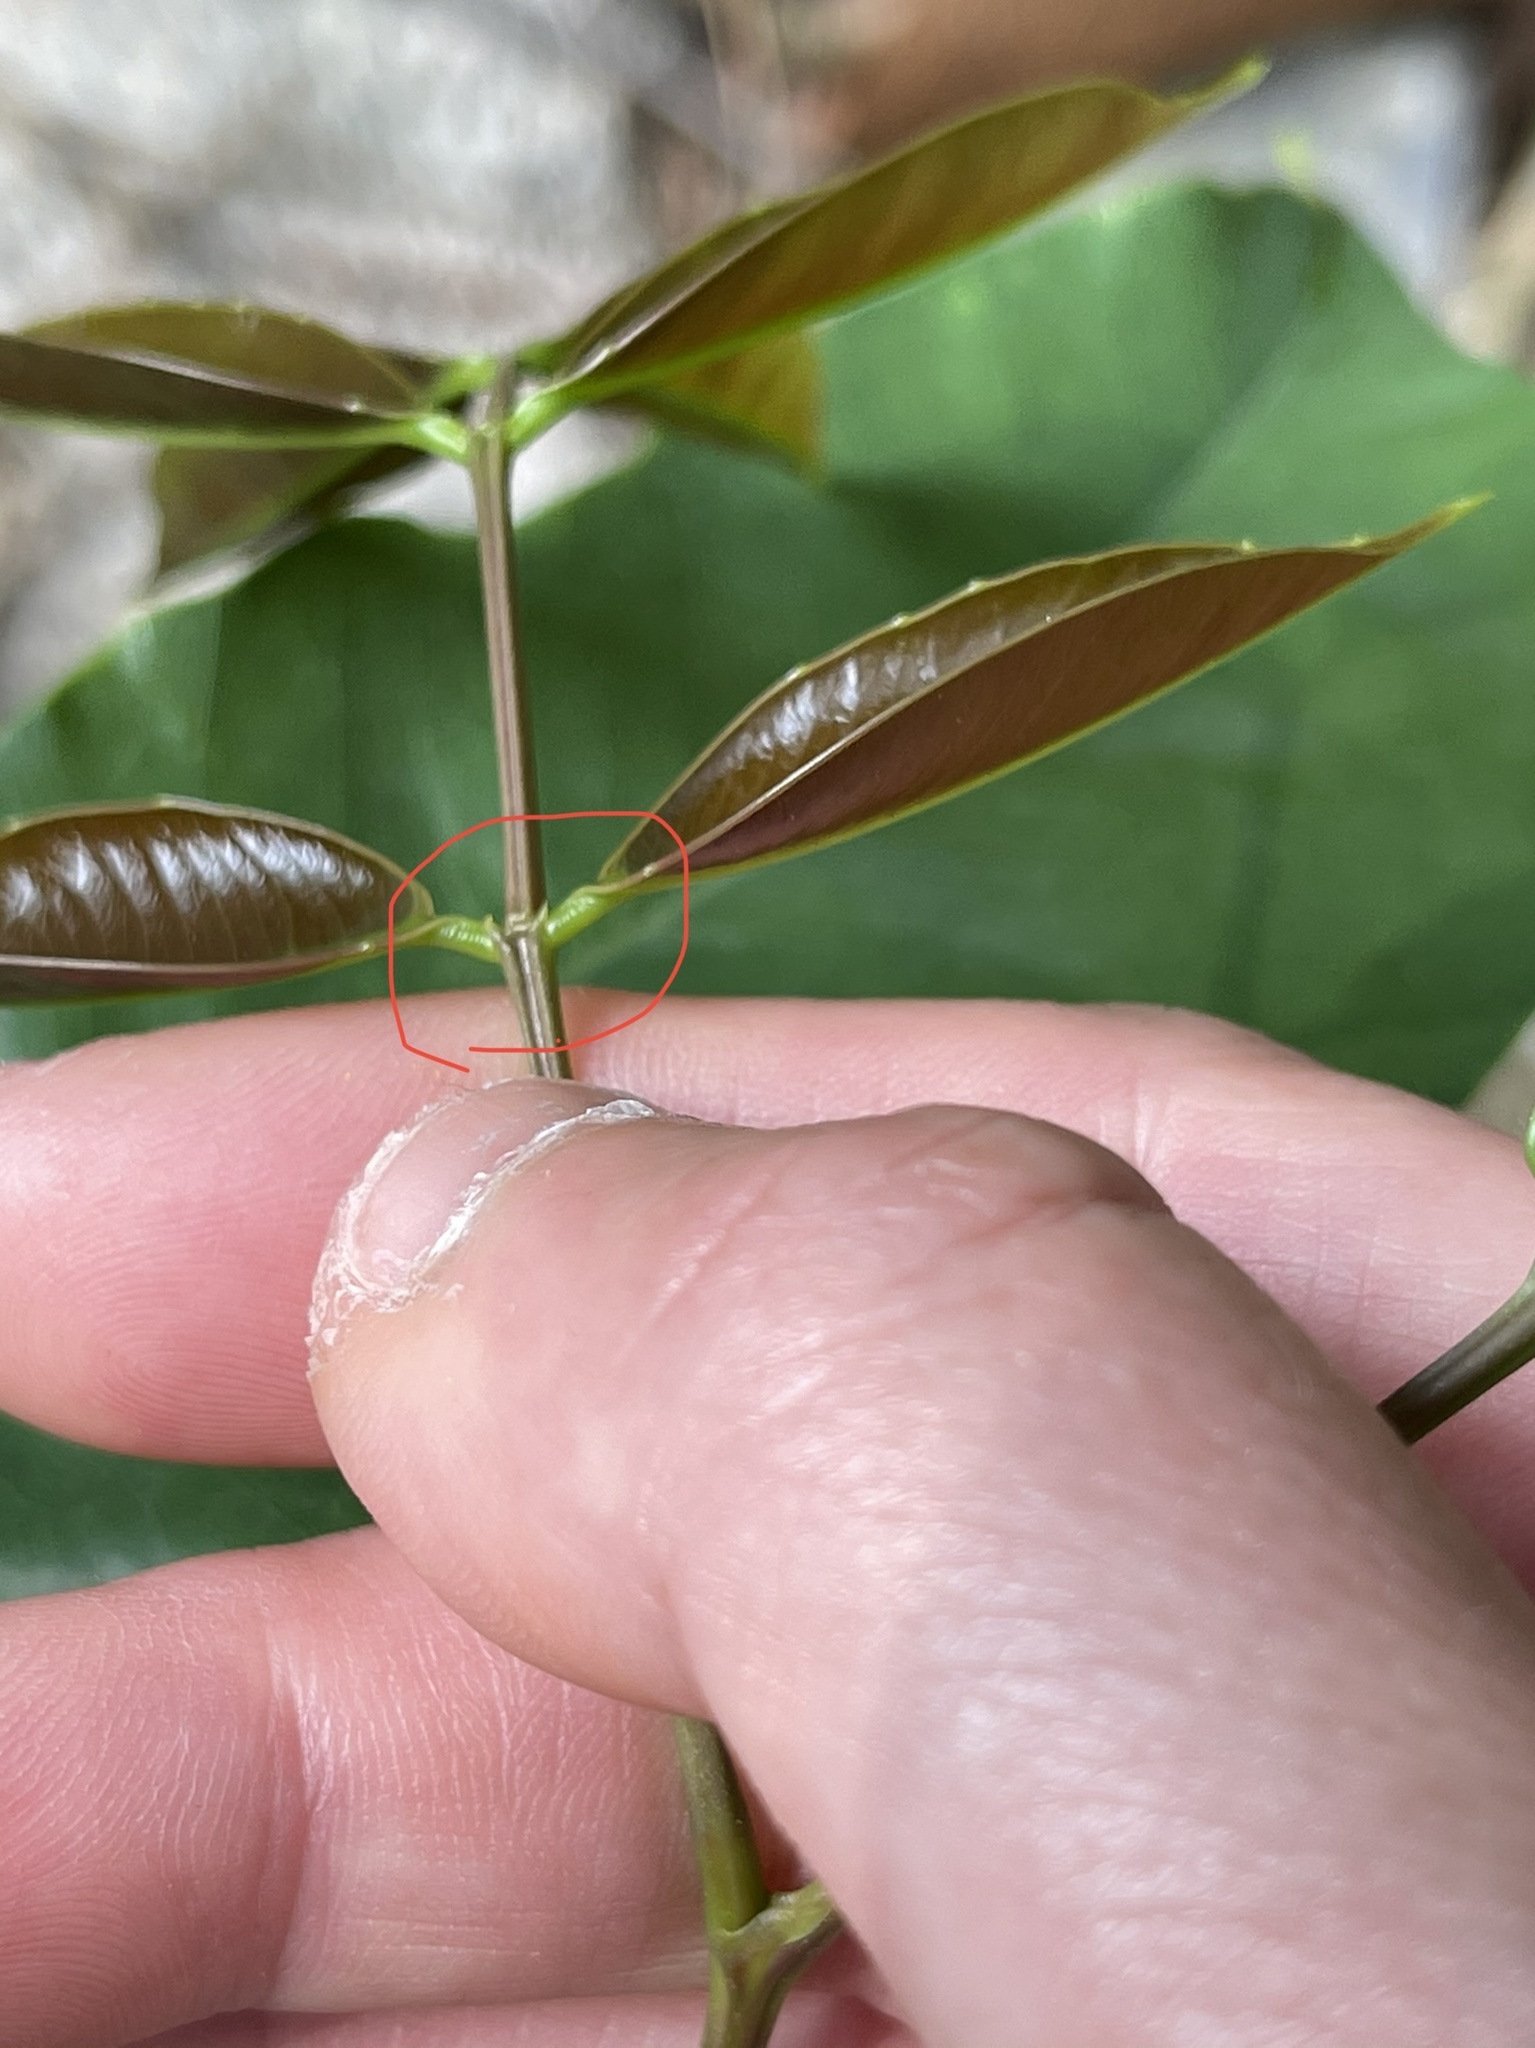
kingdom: Plantae
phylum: Tracheophyta
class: Magnoliopsida
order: Fabales
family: Fabaceae
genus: Lysidice
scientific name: Lysidice rhodostegia
